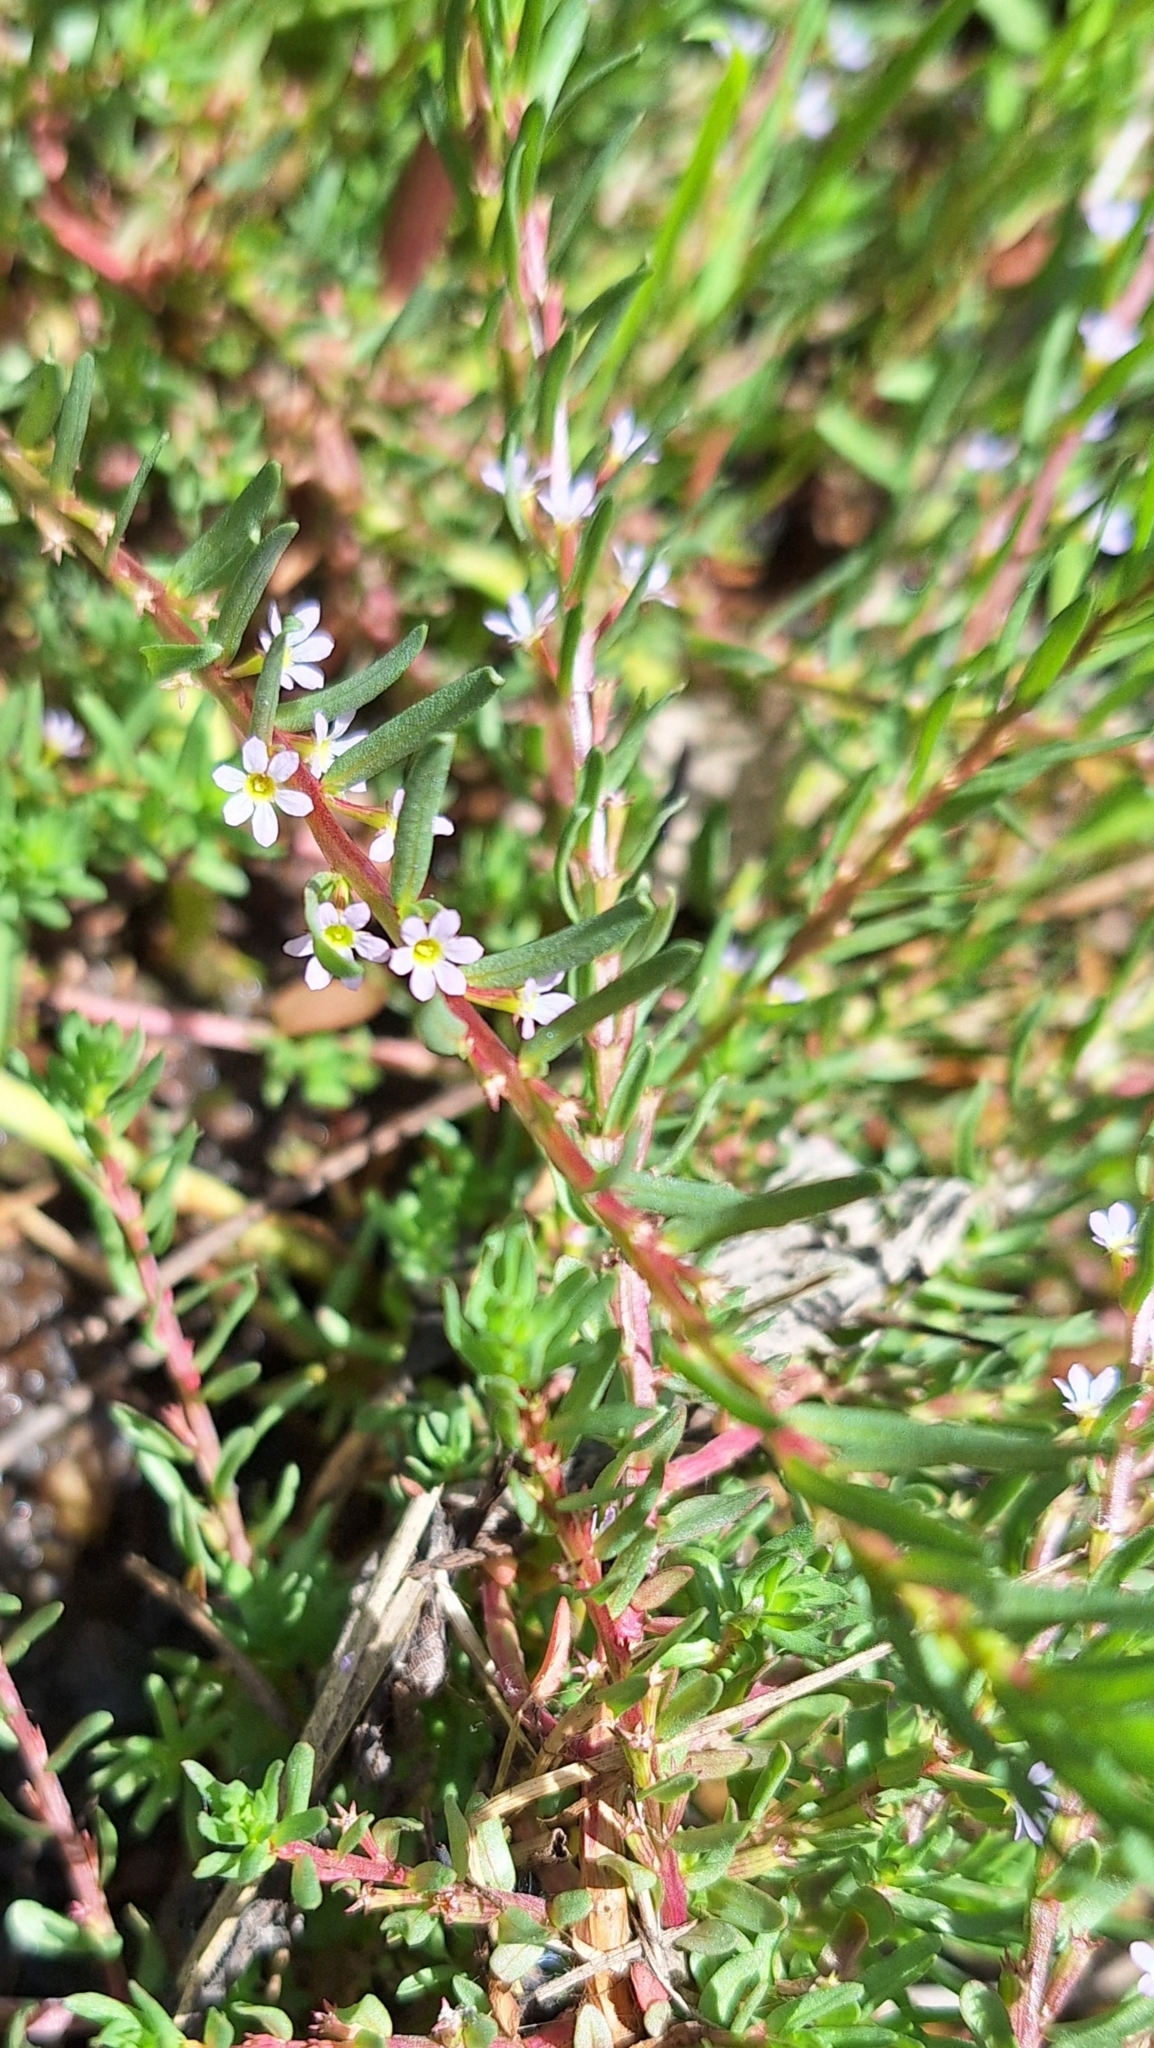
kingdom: Plantae
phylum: Tracheophyta
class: Magnoliopsida
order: Myrtales
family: Lythraceae
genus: Lythrum
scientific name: Lythrum hyssopifolia
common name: Grass-poly
